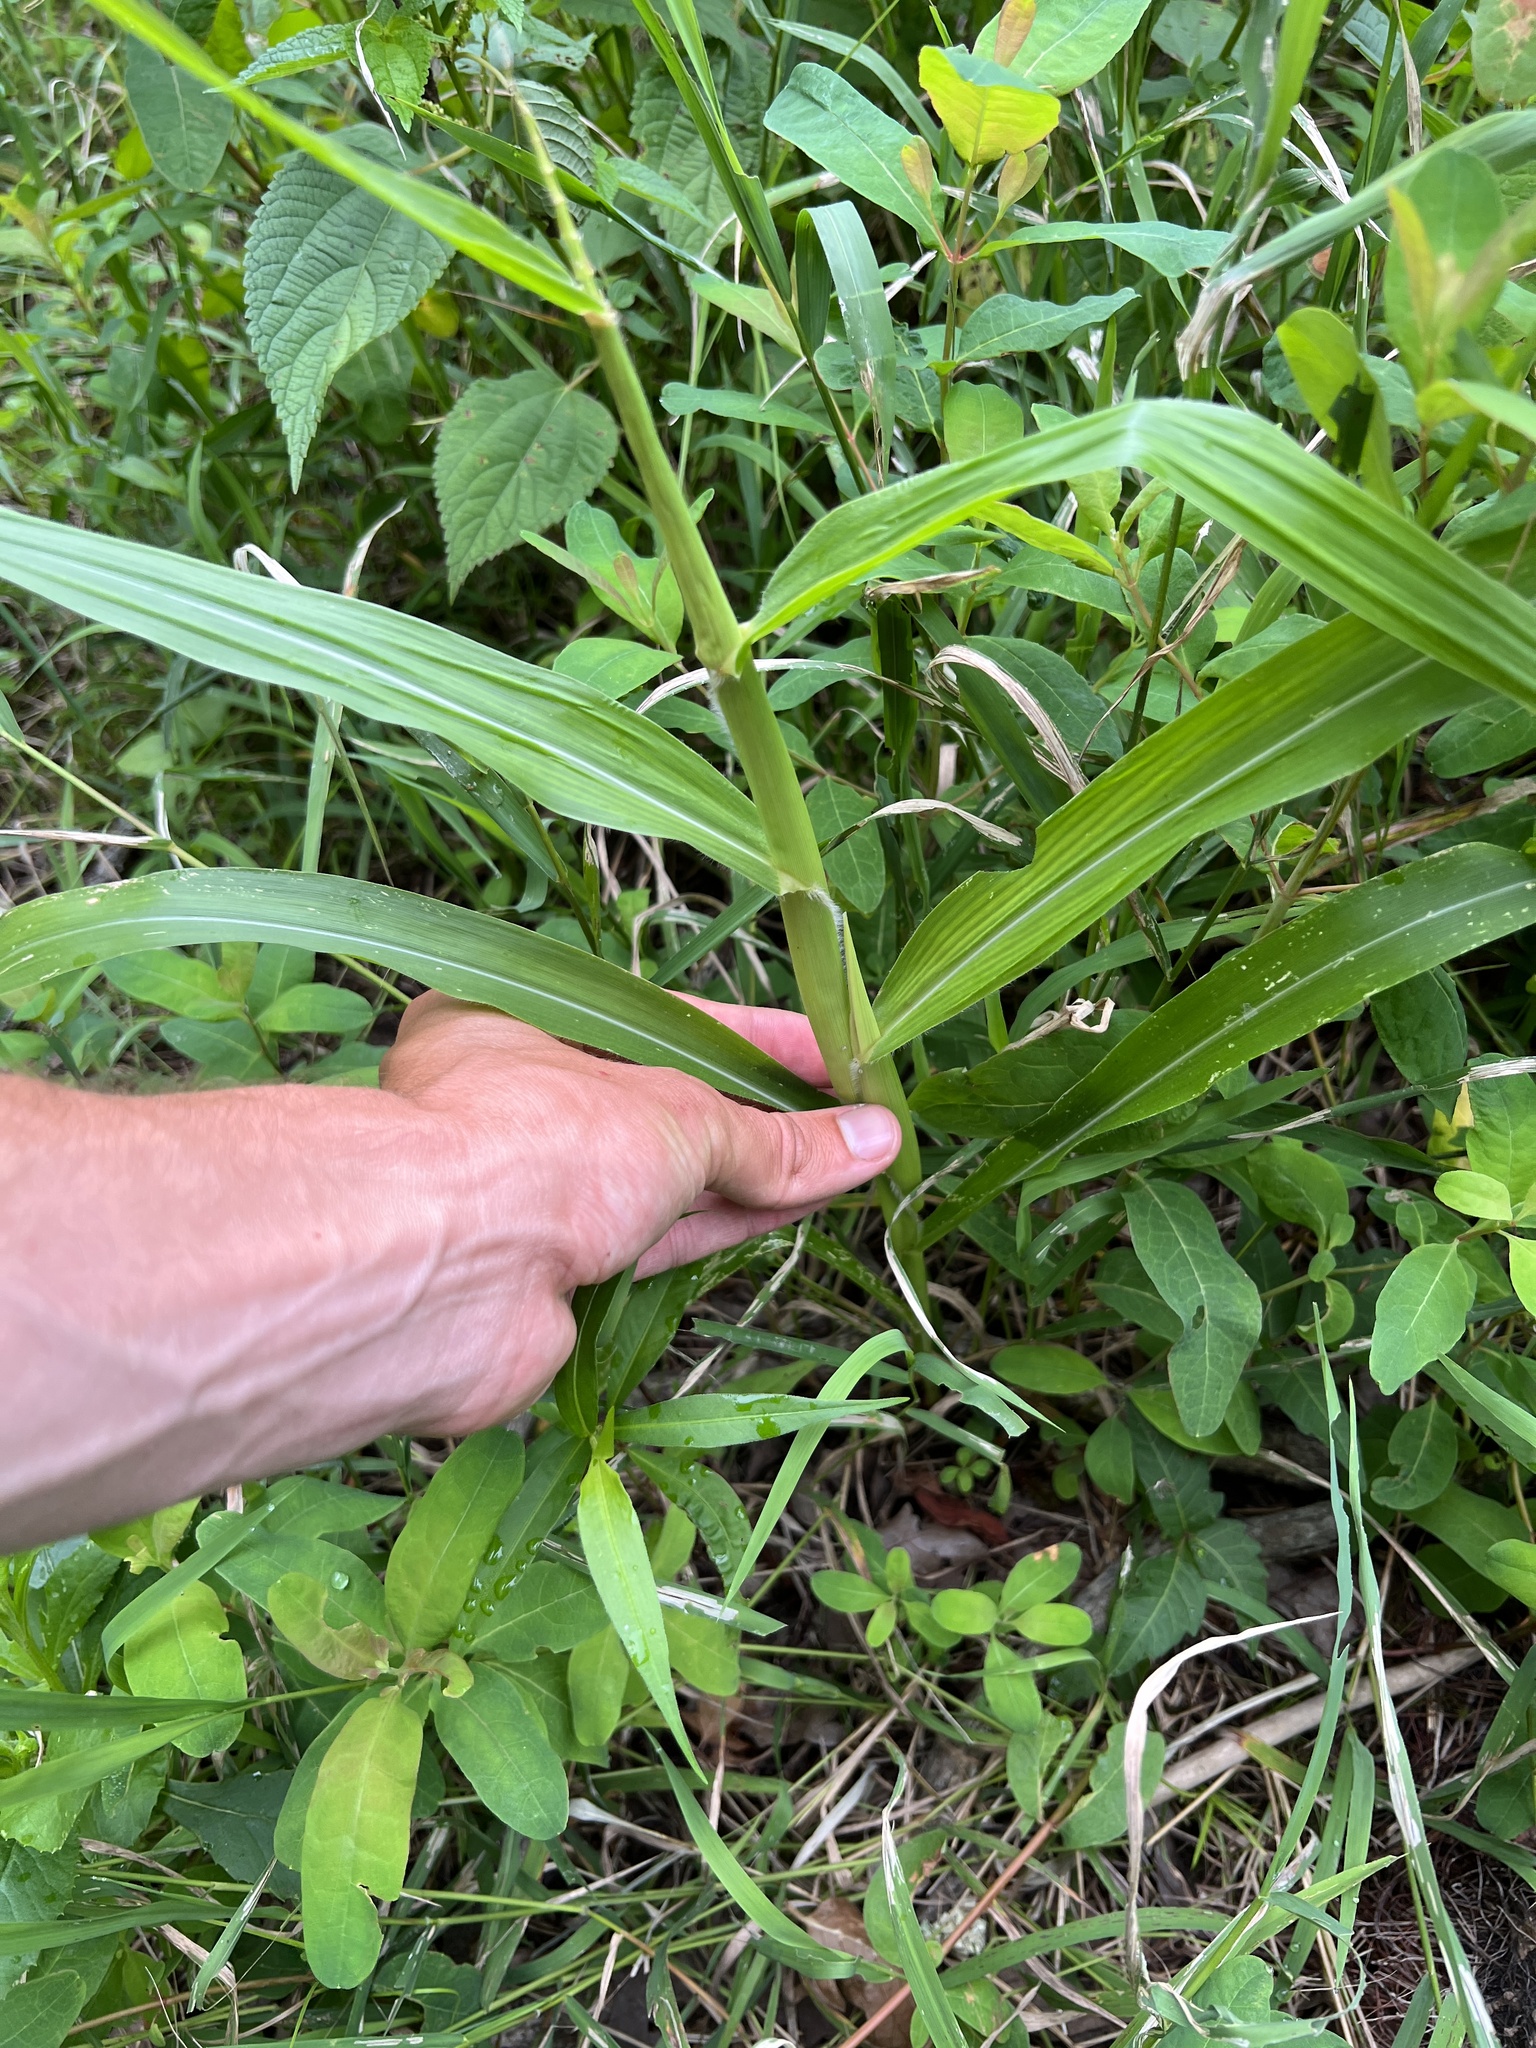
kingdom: Plantae
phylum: Tracheophyta
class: Liliopsida
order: Poales
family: Poaceae
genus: Zea
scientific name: Zea mays
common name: Maize
